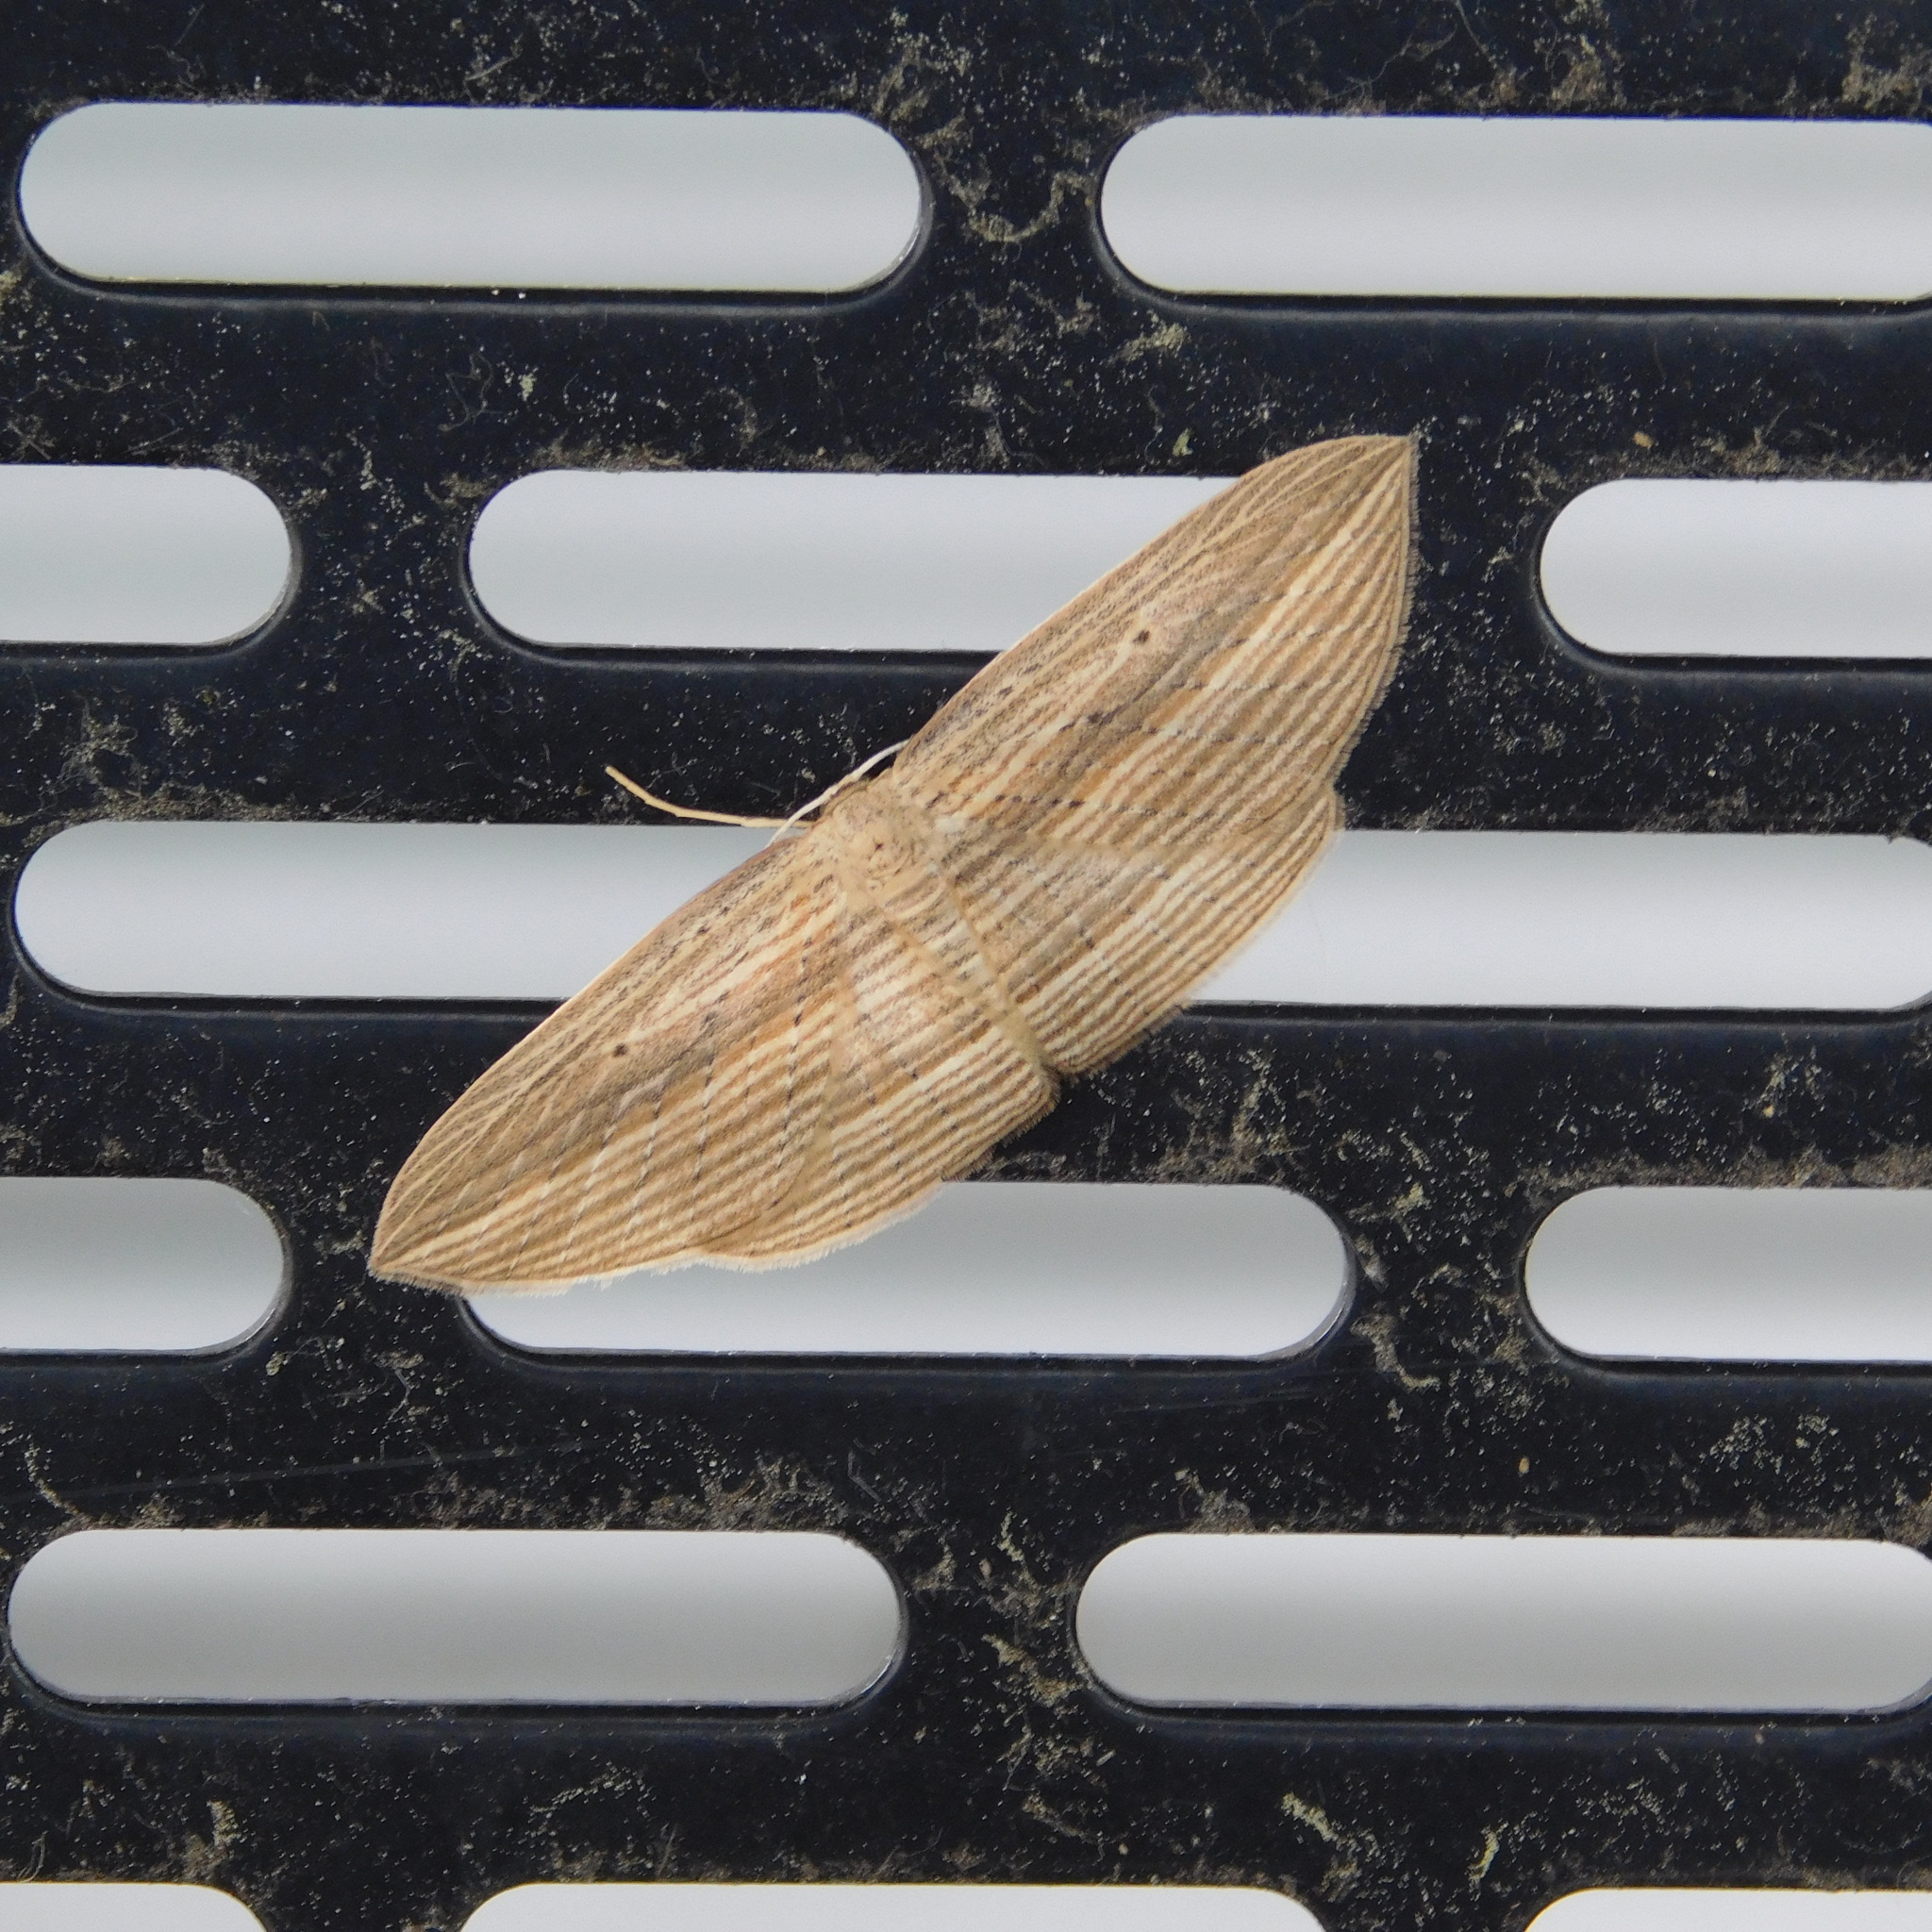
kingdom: Animalia
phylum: Arthropoda
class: Insecta
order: Lepidoptera
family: Geometridae
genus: Epiphryne
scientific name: Epiphryne verriculata
